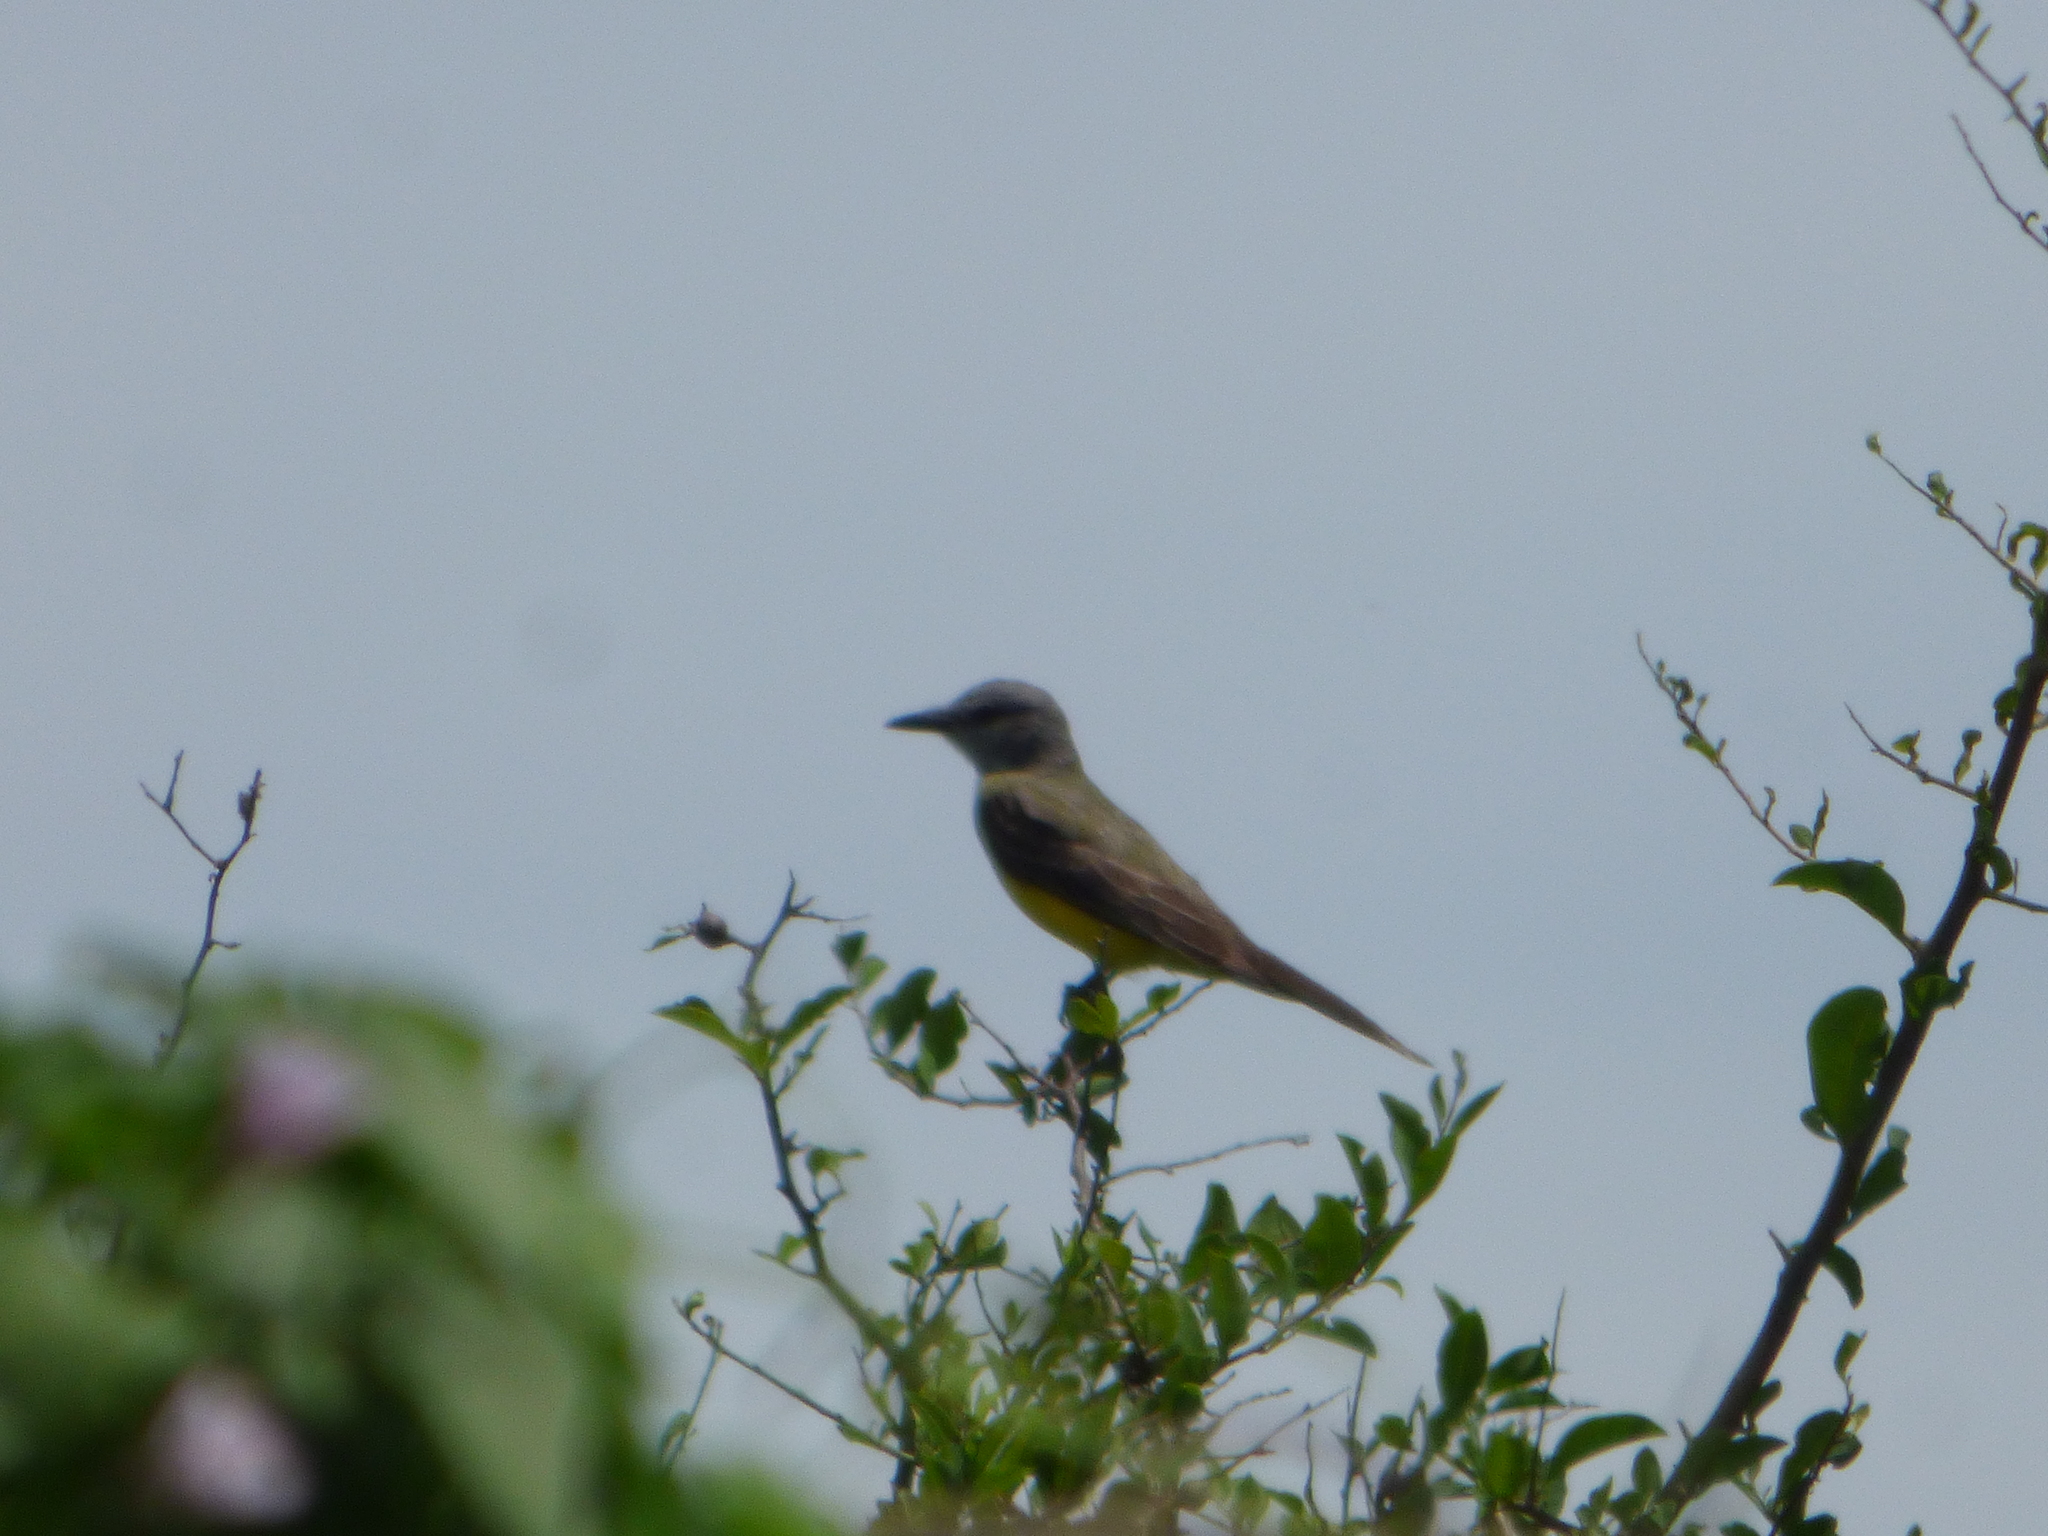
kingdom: Animalia
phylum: Chordata
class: Aves
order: Passeriformes
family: Tyrannidae
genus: Tyrannus
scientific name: Tyrannus melancholicus
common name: Tropical kingbird
